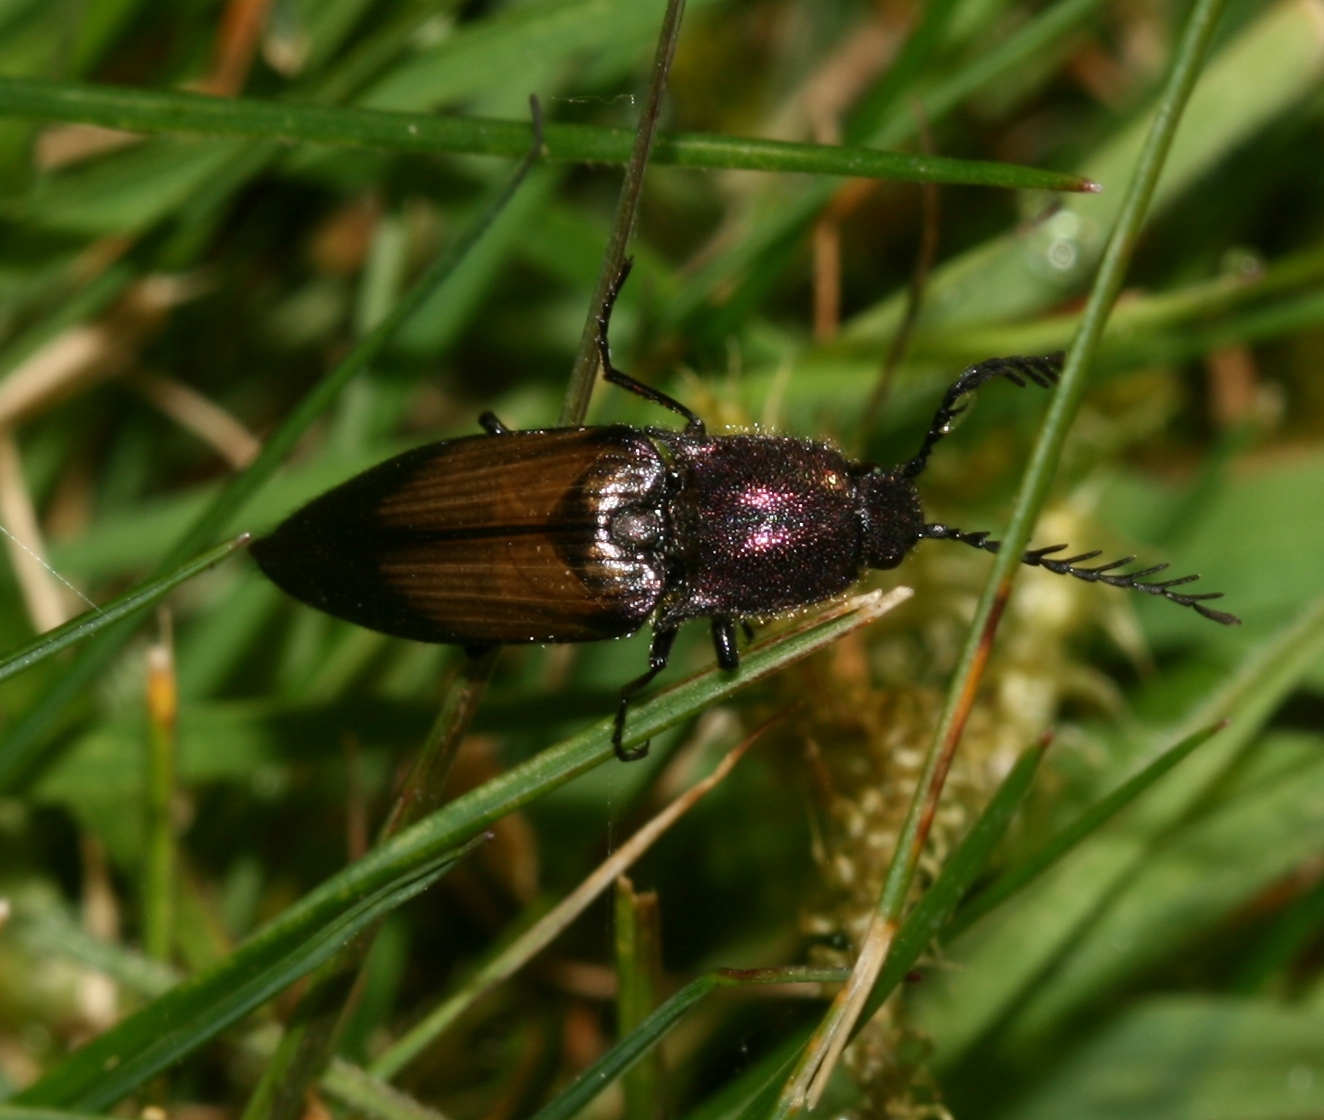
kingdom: Animalia
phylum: Arthropoda
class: Insecta
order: Coleoptera
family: Elateridae
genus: Ctenicera
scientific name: Ctenicera cuprea
